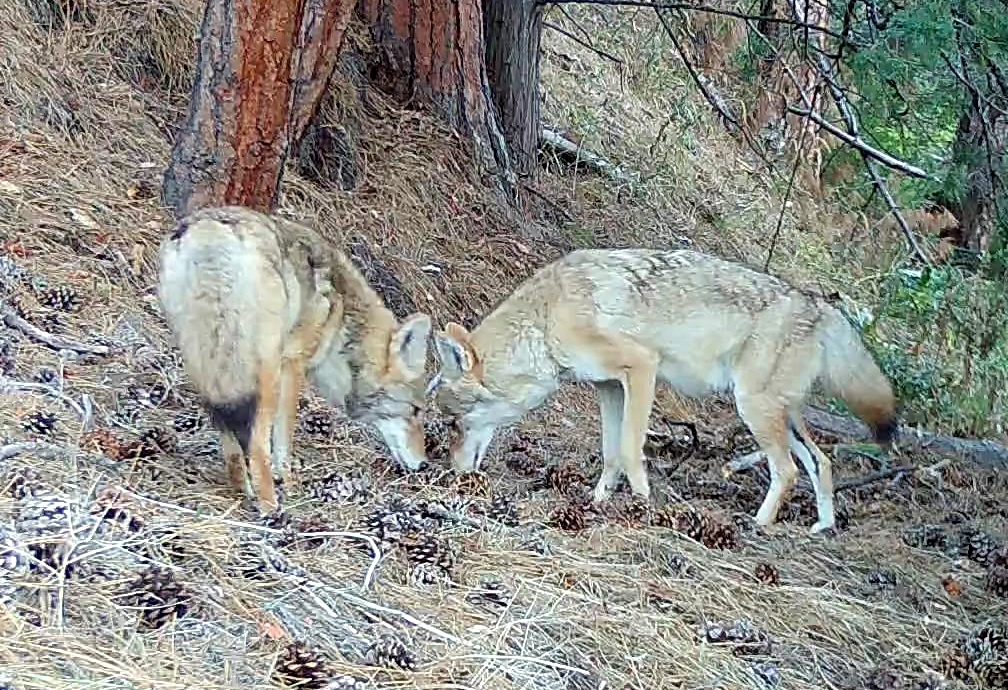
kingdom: Animalia
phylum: Chordata
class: Mammalia
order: Carnivora
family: Canidae
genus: Canis
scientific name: Canis latrans
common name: Coyote
